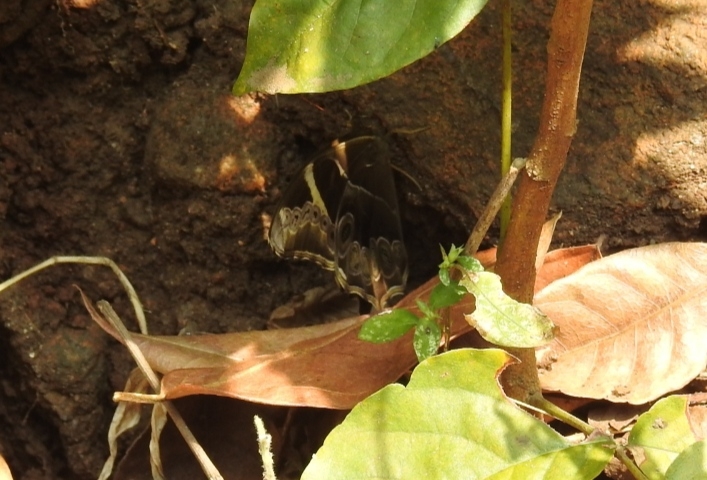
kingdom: Animalia
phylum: Arthropoda
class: Insecta
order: Lepidoptera
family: Nymphalidae
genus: Lethe
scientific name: Lethe europa
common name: Bamboo treebrown
